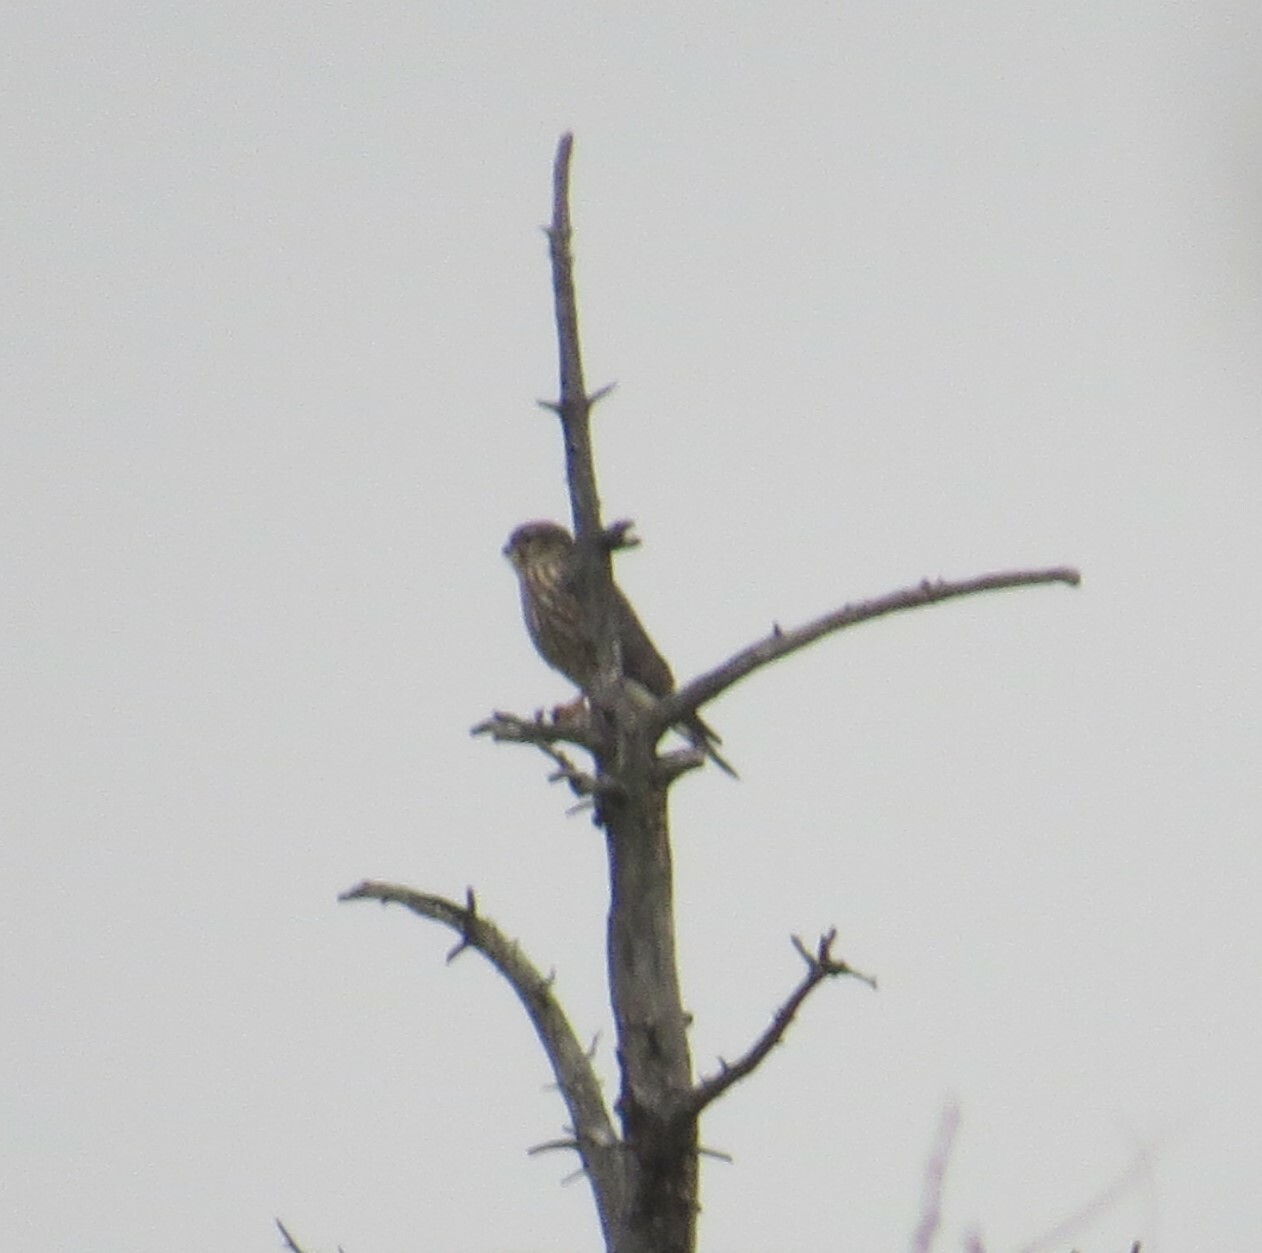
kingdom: Animalia
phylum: Chordata
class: Aves
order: Falconiformes
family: Falconidae
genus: Falco
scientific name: Falco columbarius
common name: Merlin
